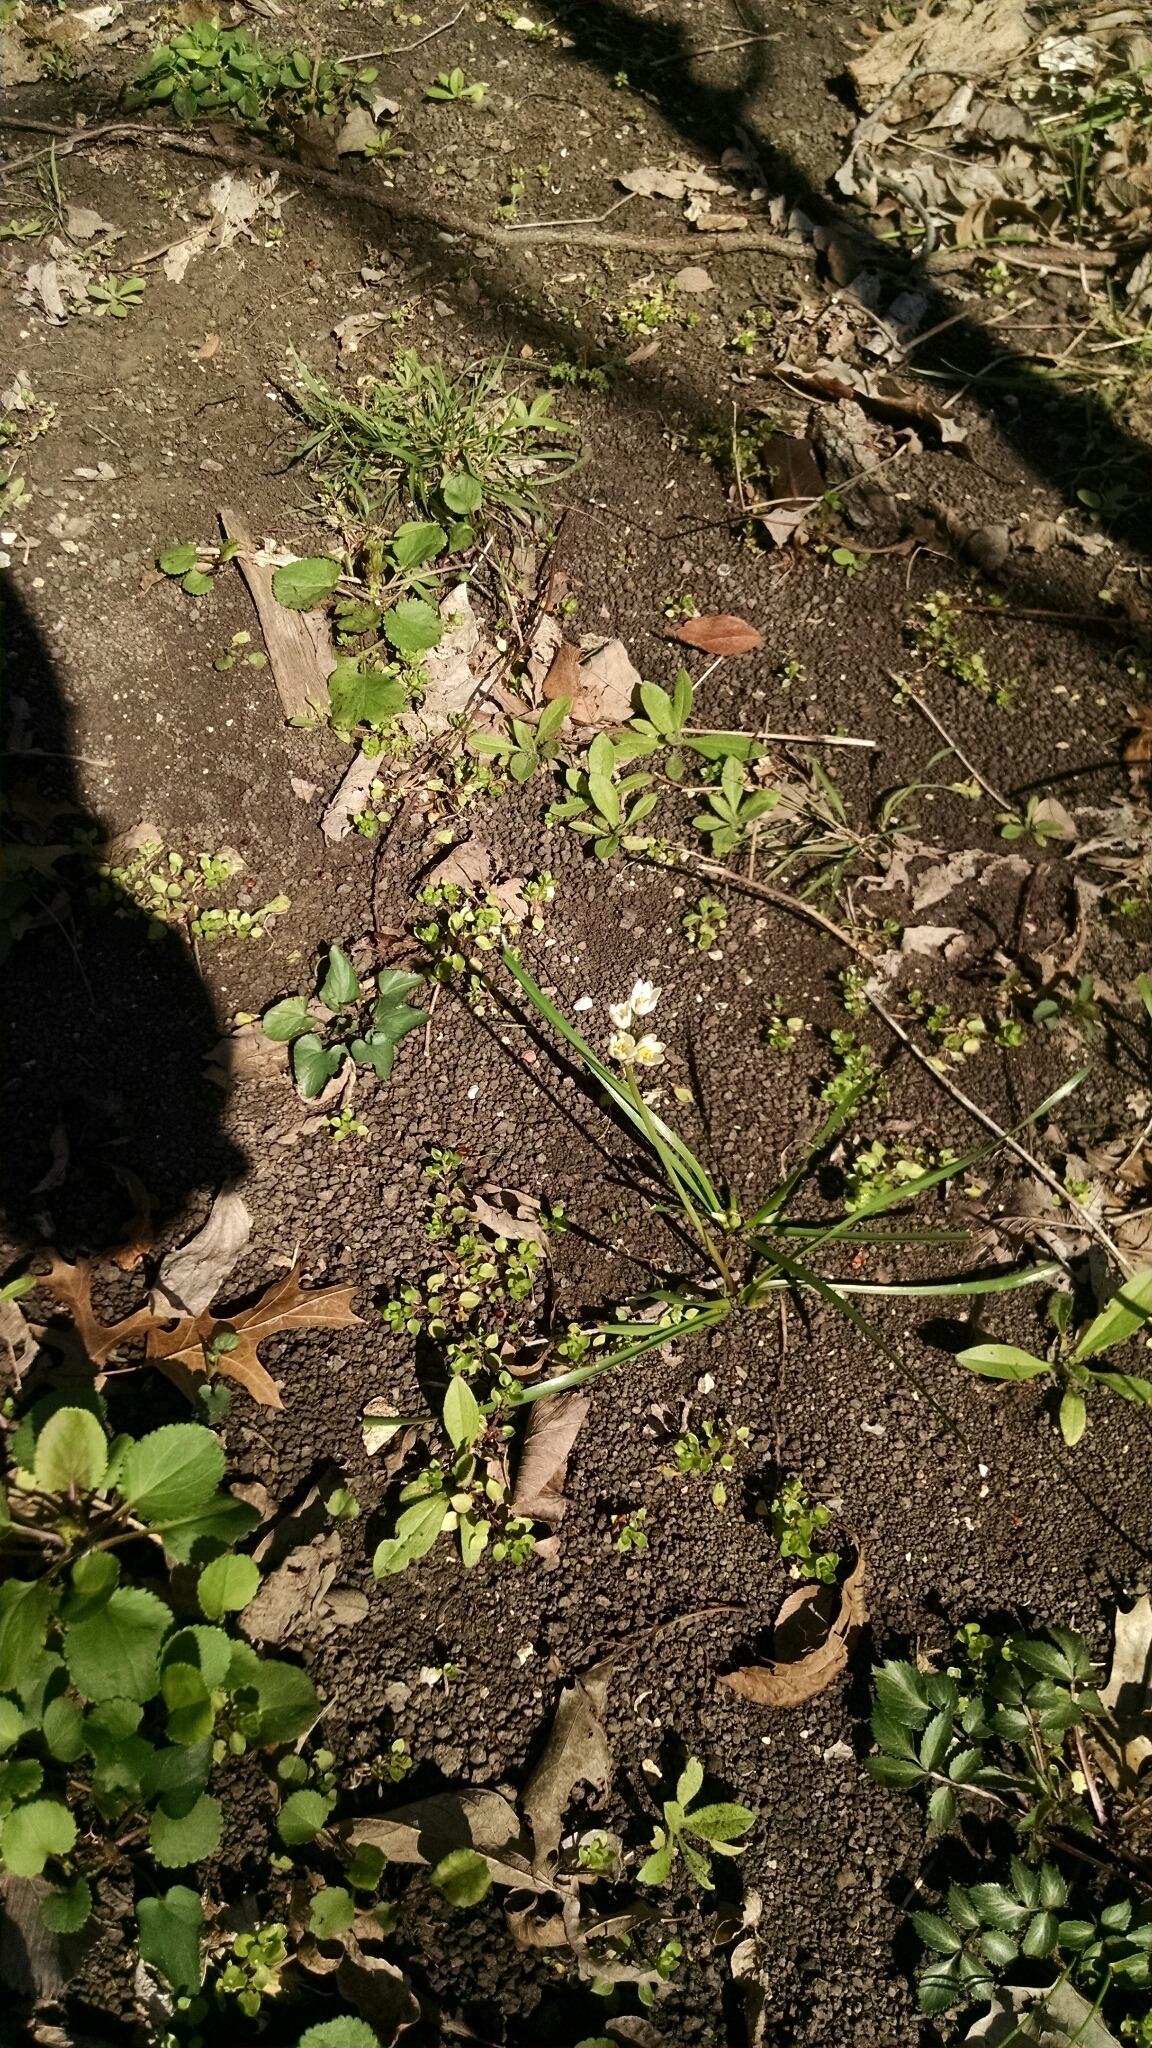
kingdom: Plantae
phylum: Tracheophyta
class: Liliopsida
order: Asparagales
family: Amaryllidaceae
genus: Nothoscordum
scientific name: Nothoscordum bivalve
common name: Crow-poison
